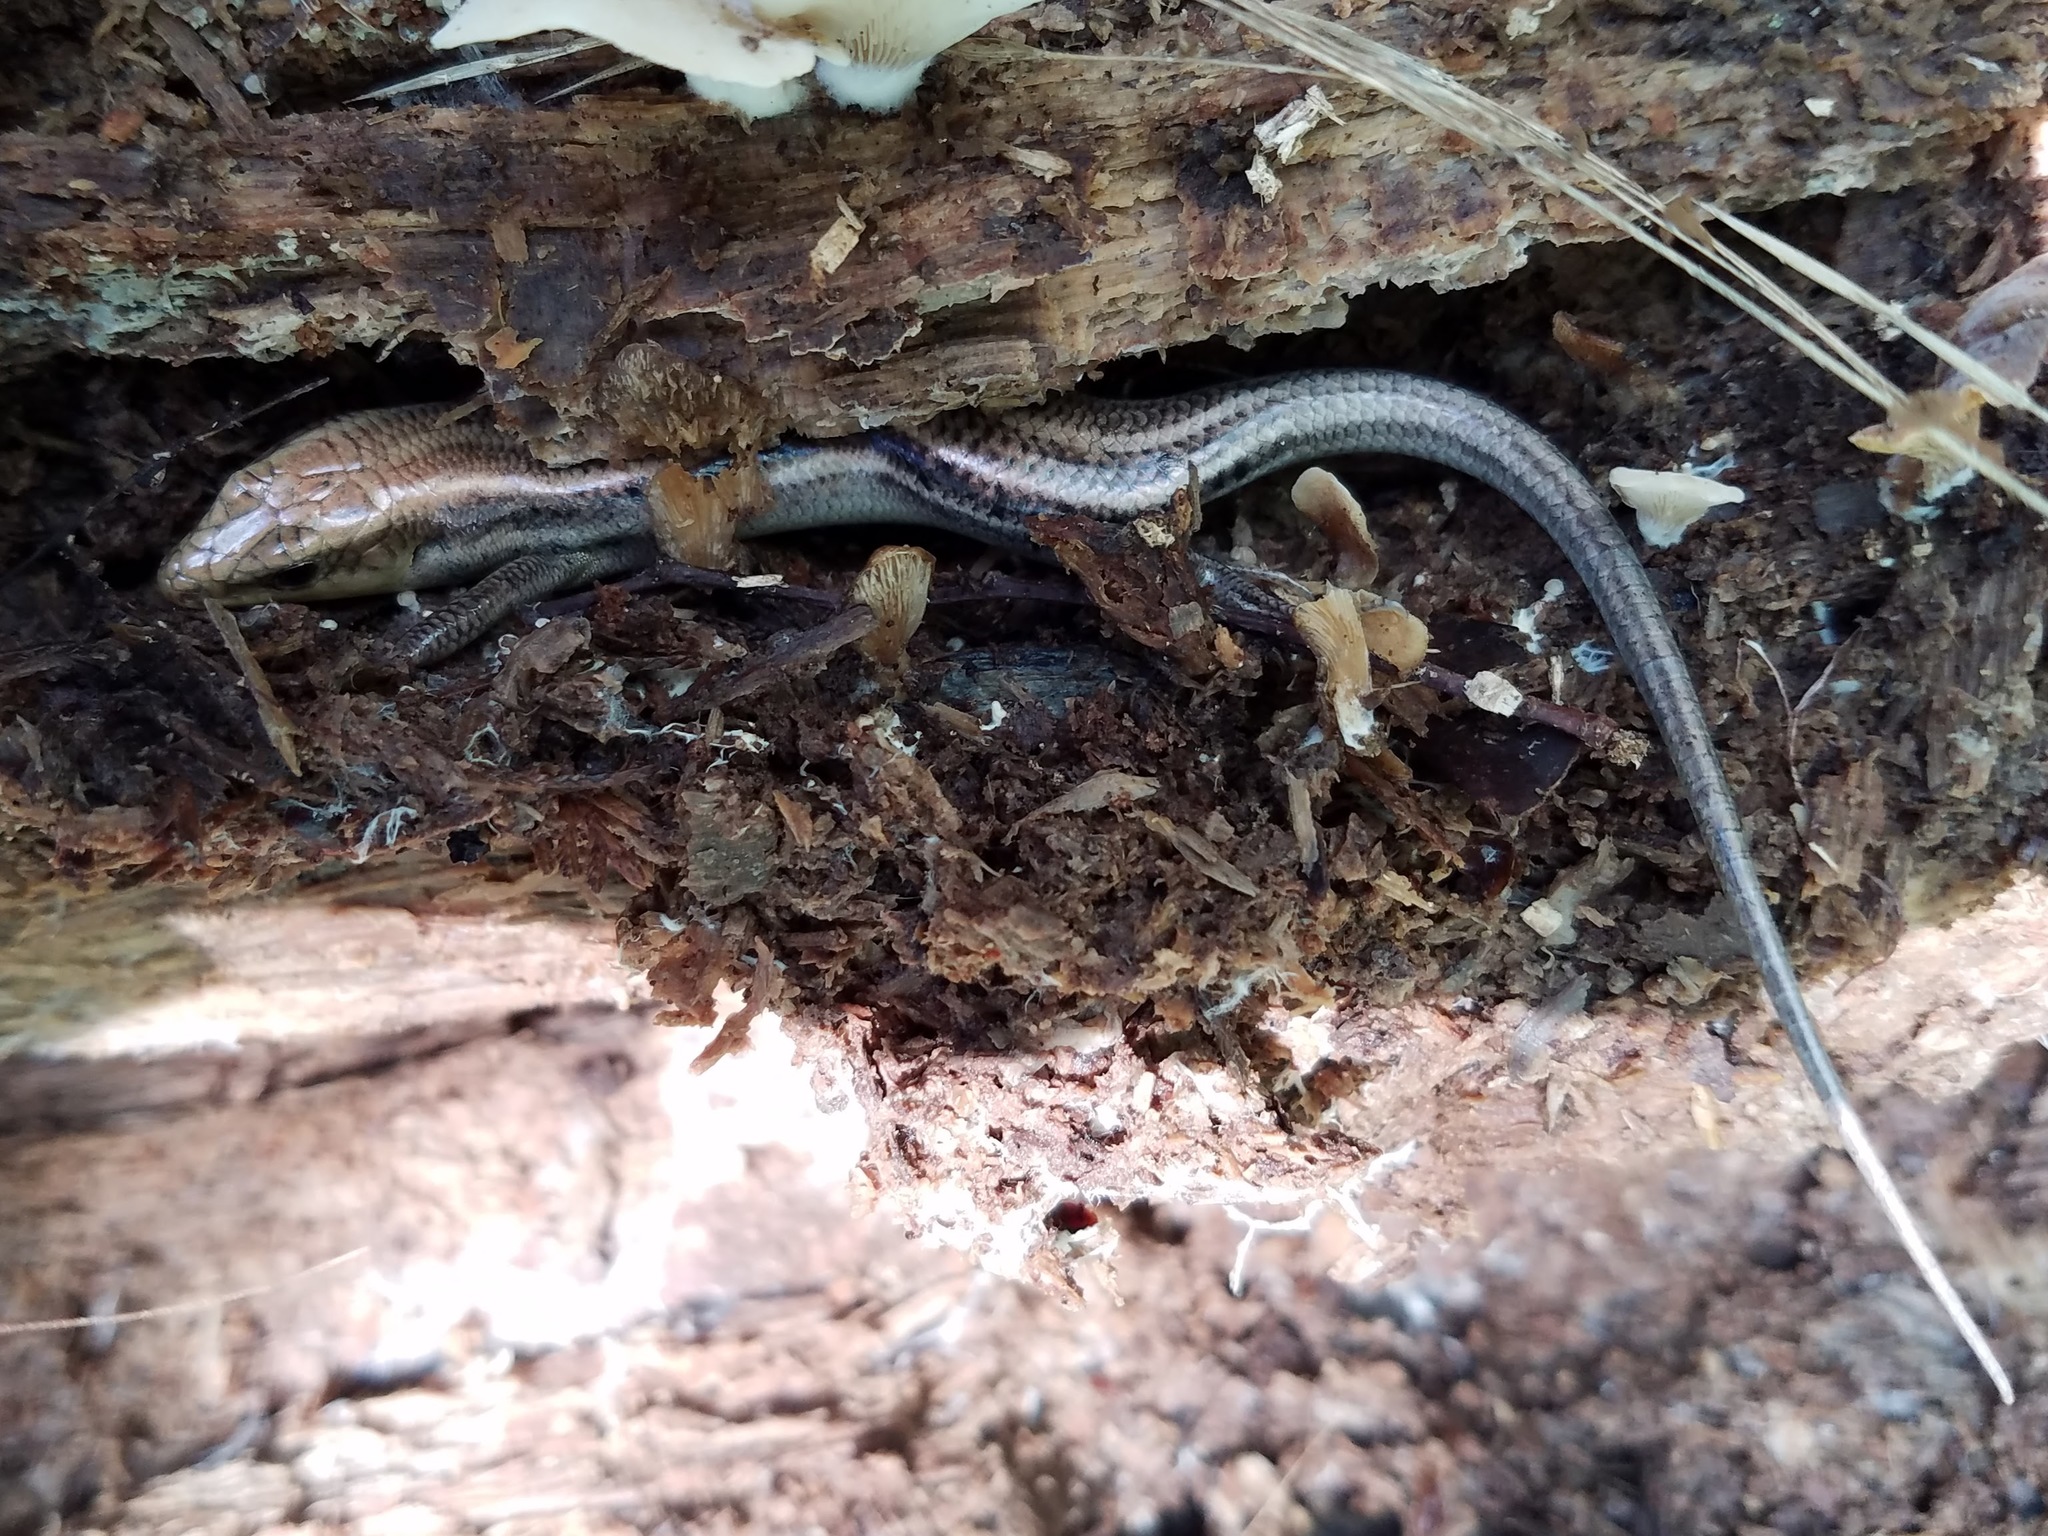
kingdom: Animalia
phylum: Chordata
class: Squamata
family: Scincidae
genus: Plestiodon
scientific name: Plestiodon
